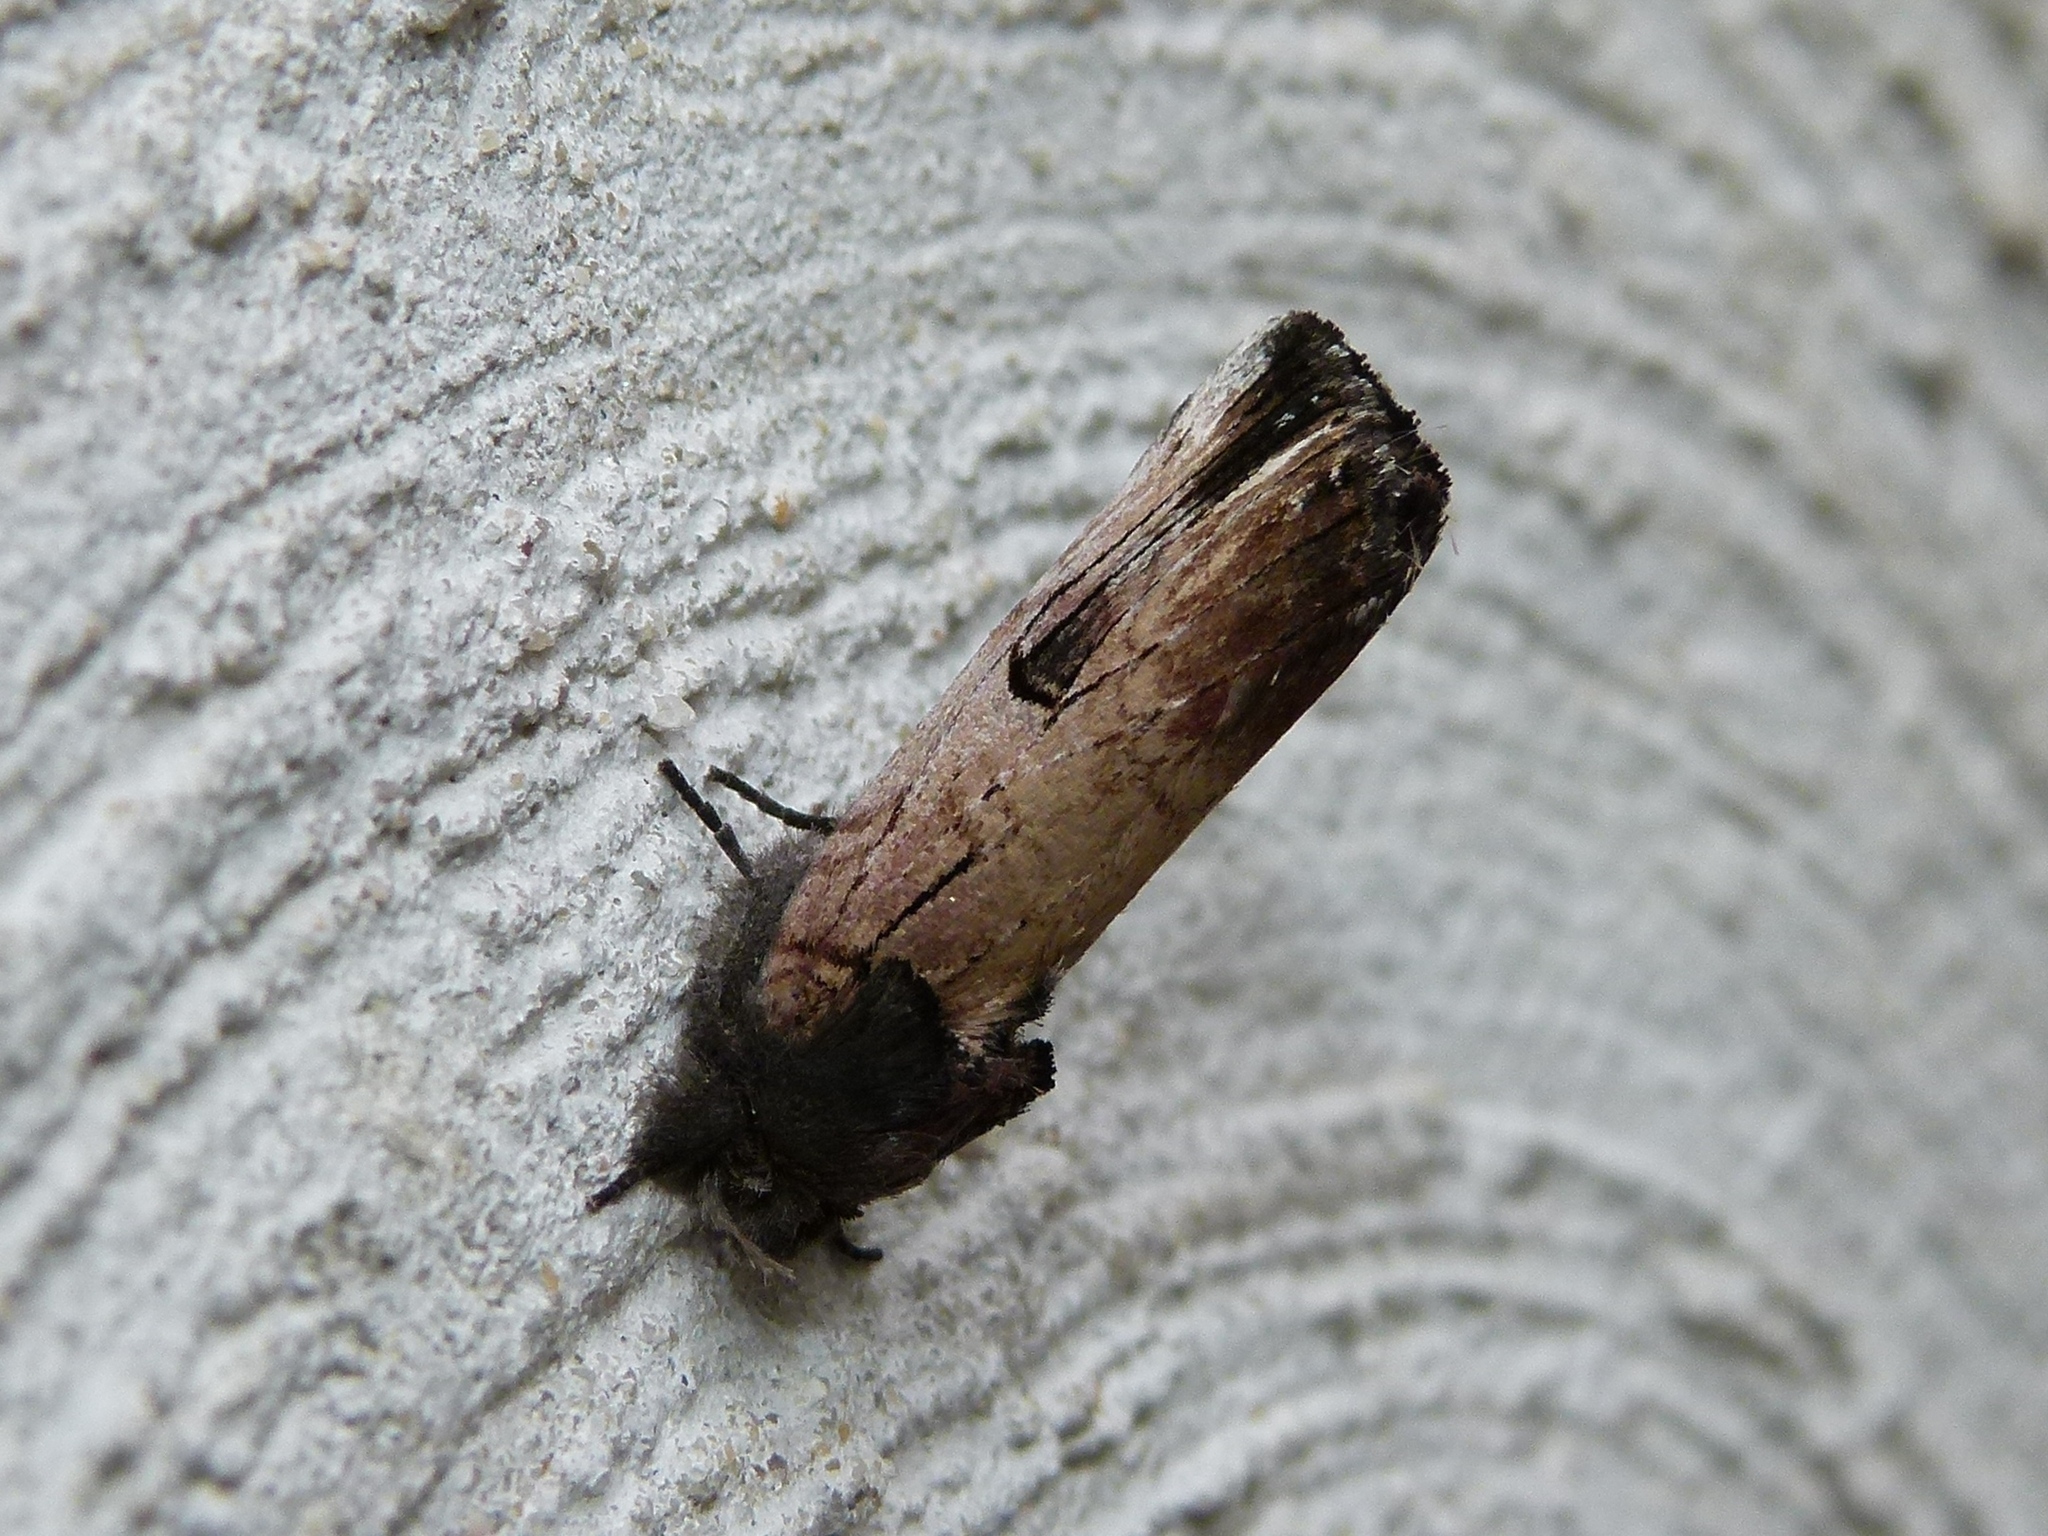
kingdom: Animalia
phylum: Arthropoda
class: Insecta
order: Lepidoptera
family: Notodontidae
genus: Schizura
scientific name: Schizura badia
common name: Chestnut schizura
